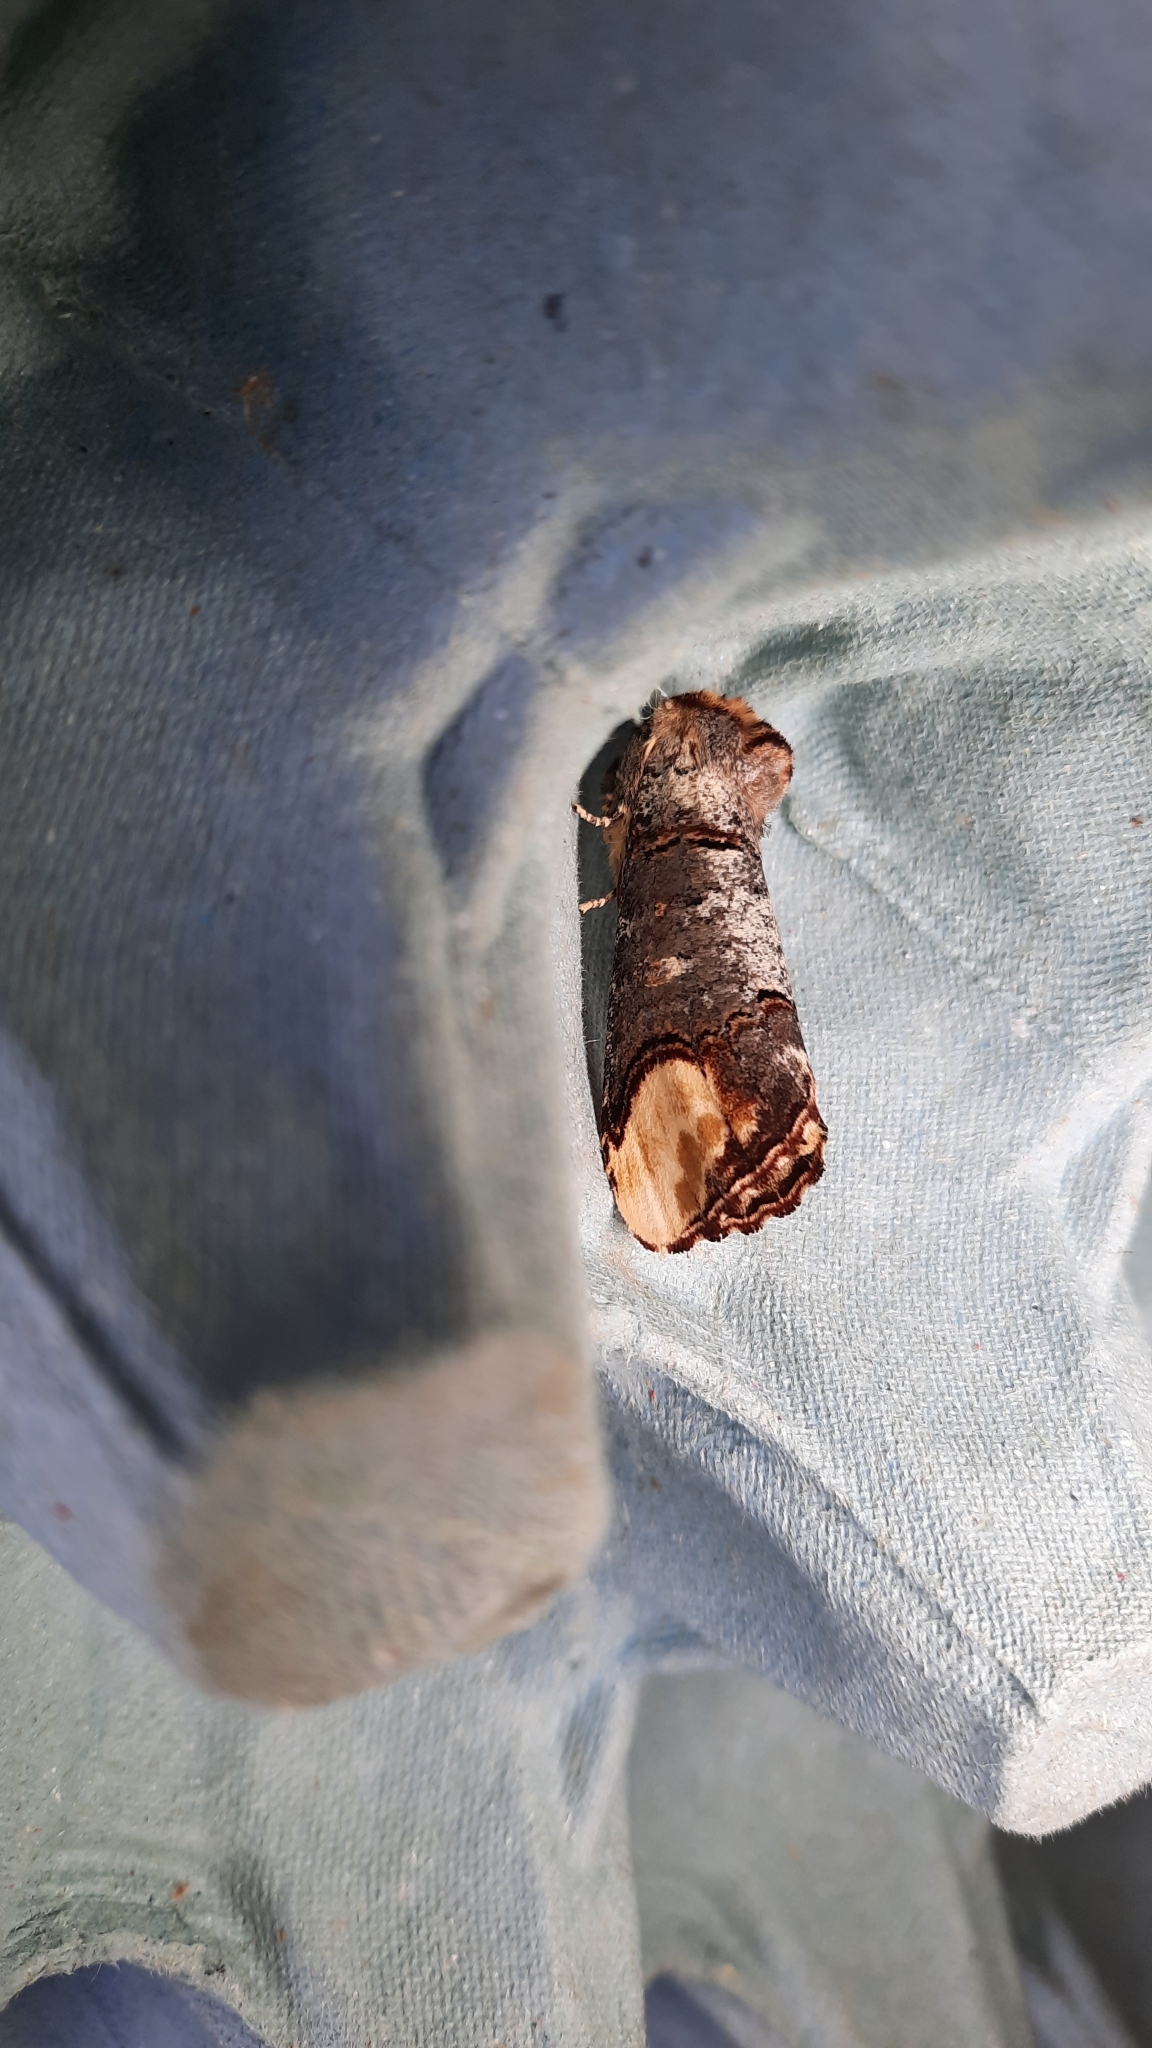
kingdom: Animalia
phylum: Arthropoda
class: Insecta
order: Lepidoptera
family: Notodontidae
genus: Phalera
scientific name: Phalera bucephala
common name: Buff-tip
